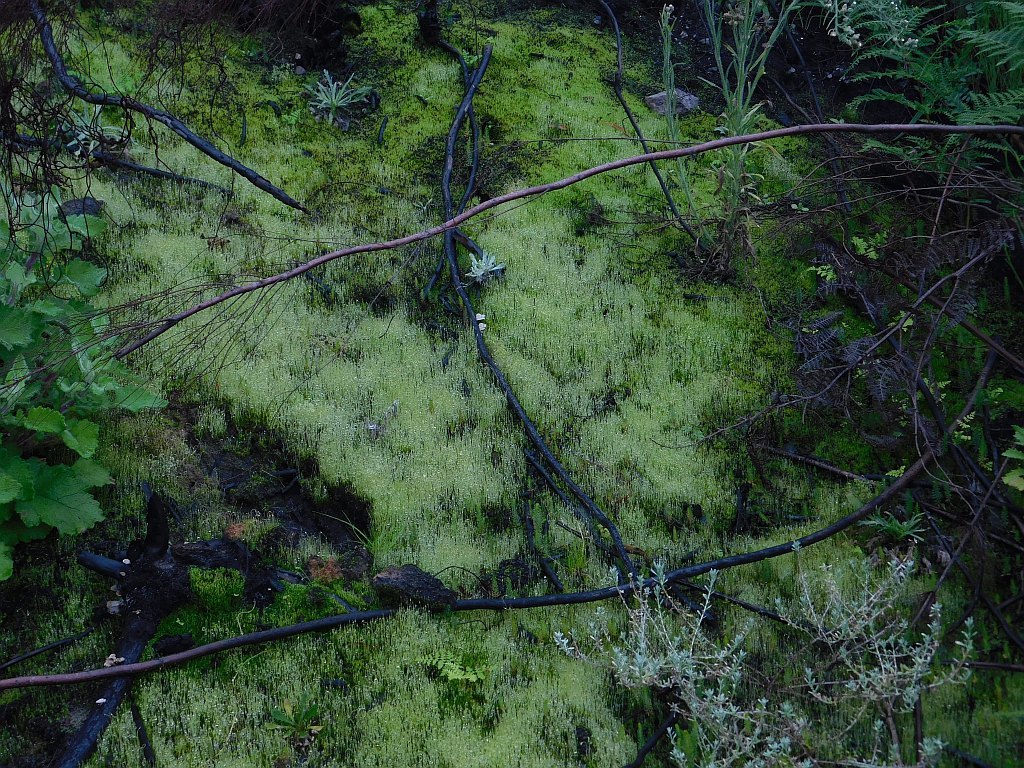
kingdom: Plantae
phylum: Bryophyta
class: Bryopsida
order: Funariales
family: Funariaceae
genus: Funaria
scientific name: Funaria hygrometrica
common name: Common cord moss
